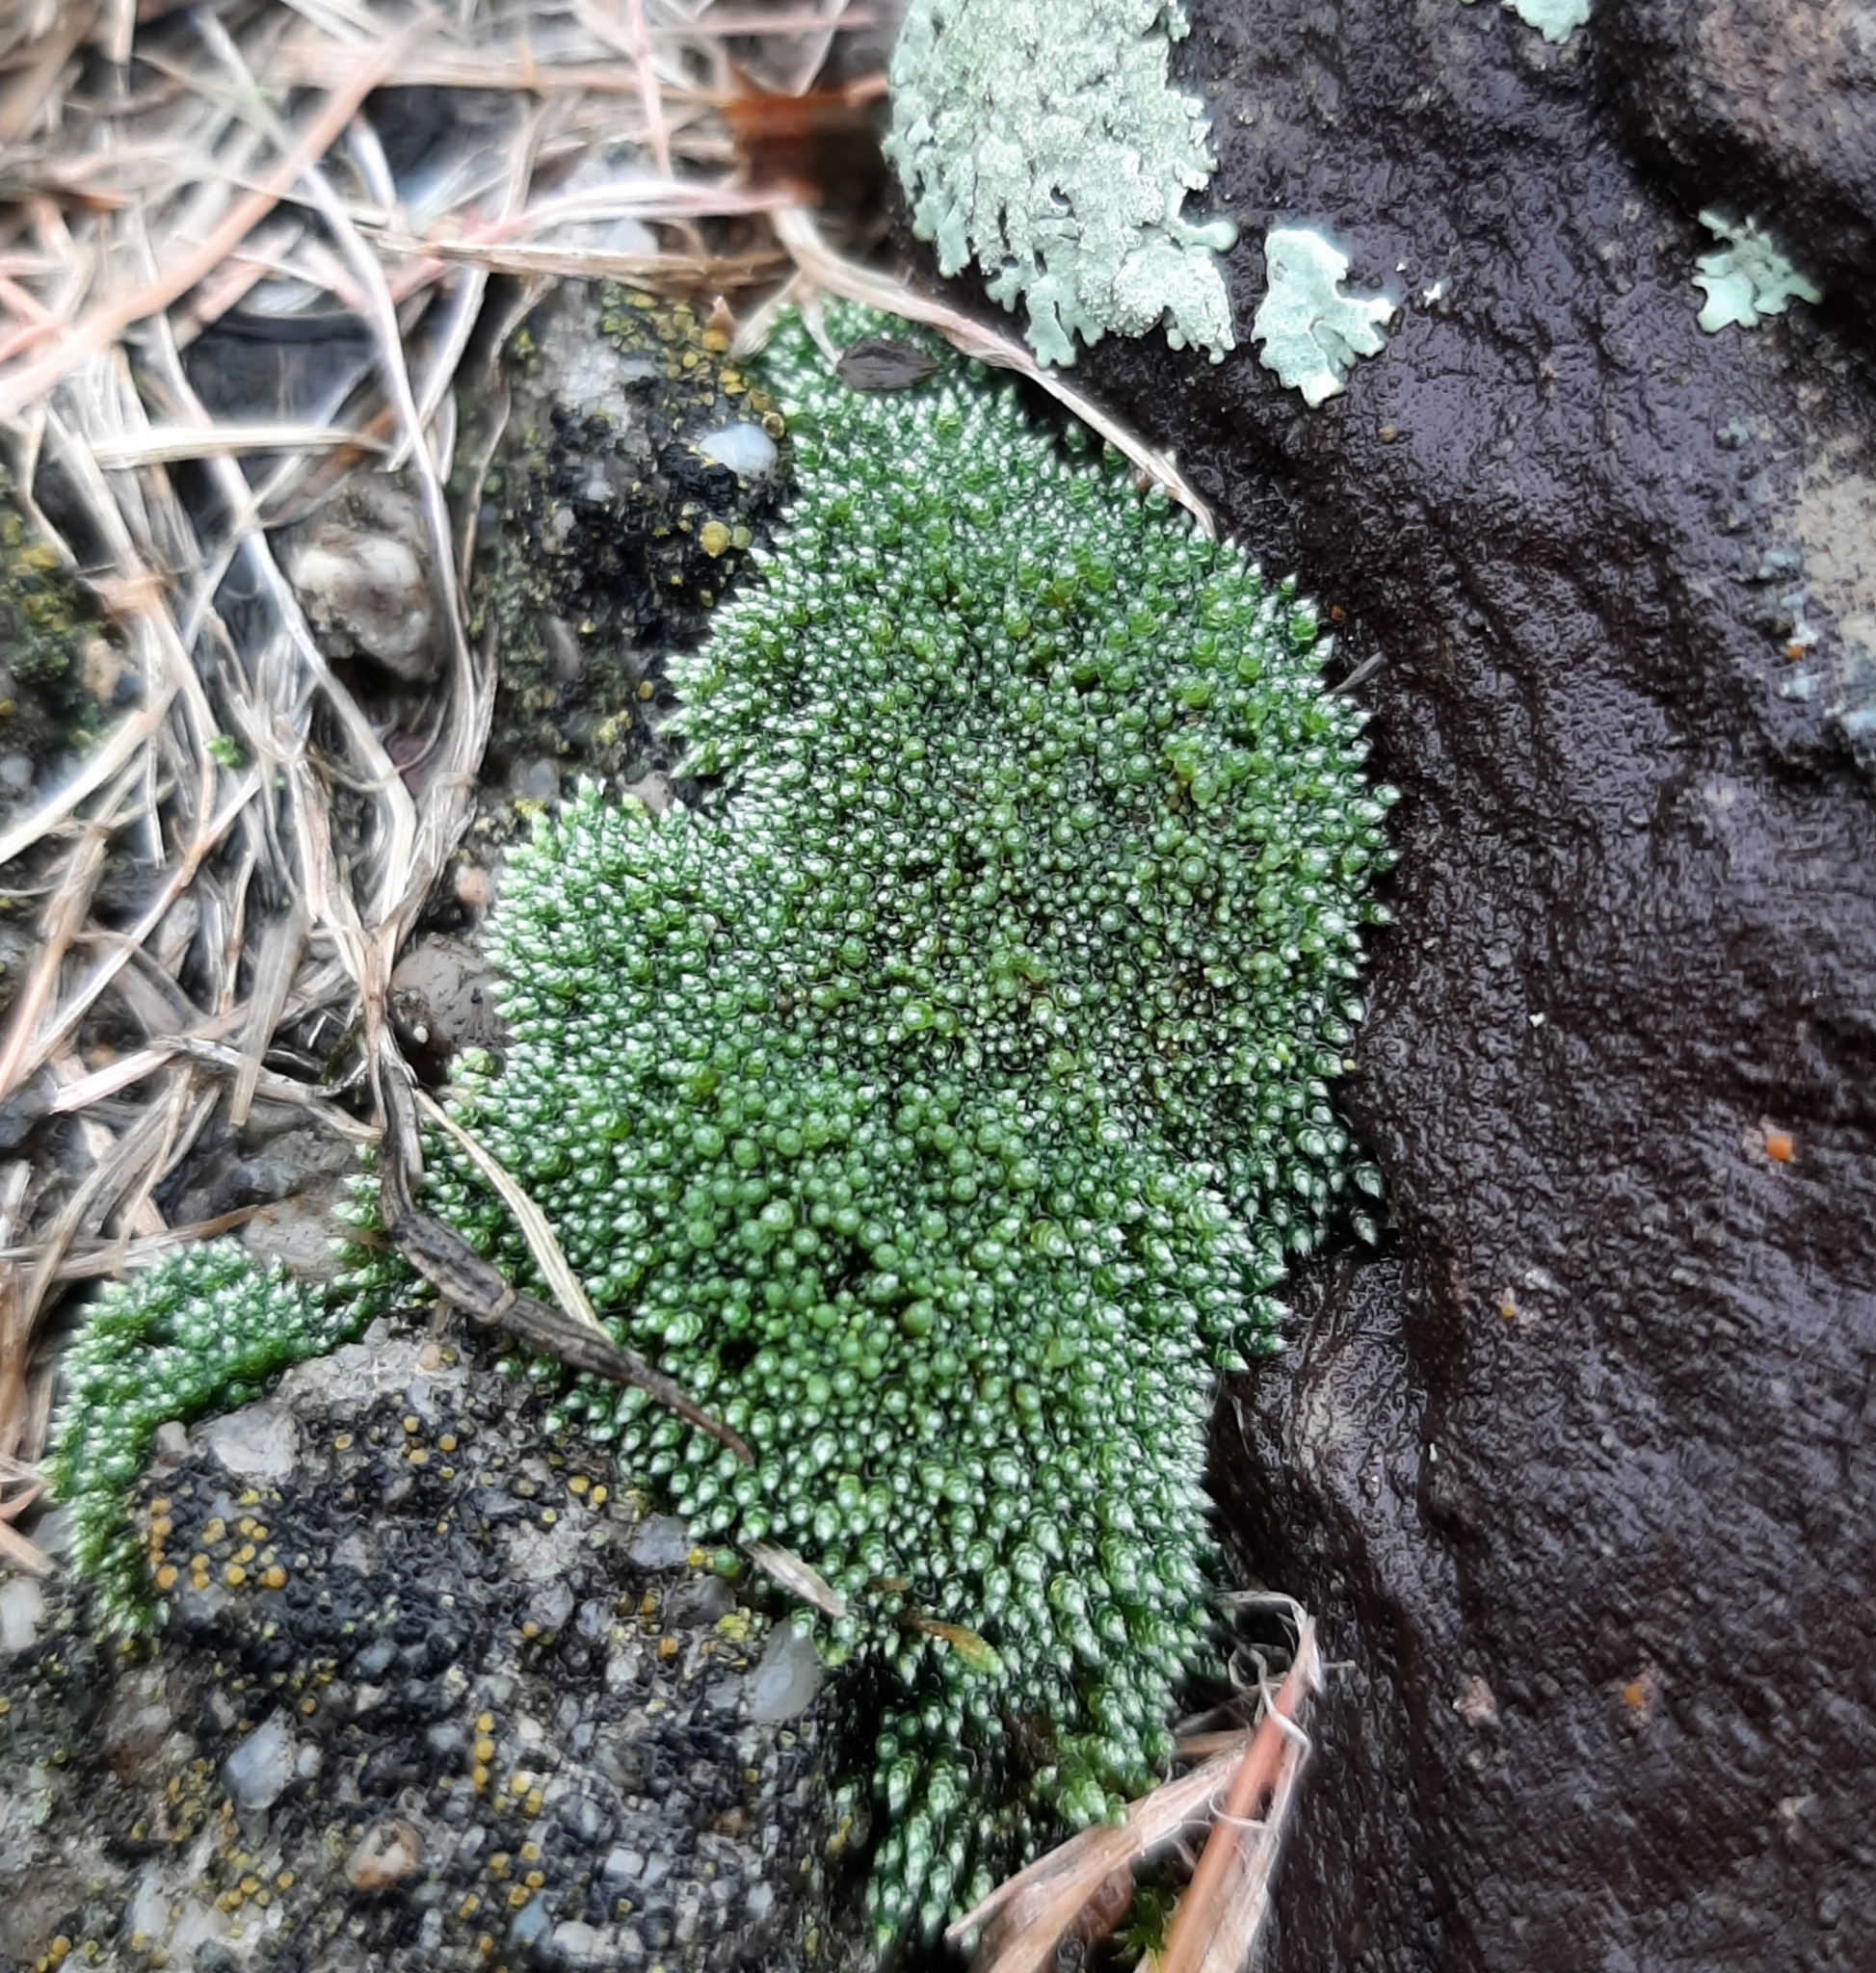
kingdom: Plantae
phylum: Bryophyta
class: Bryopsida
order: Bryales
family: Bryaceae
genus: Bryum
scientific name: Bryum argenteum
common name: Silver-moss
